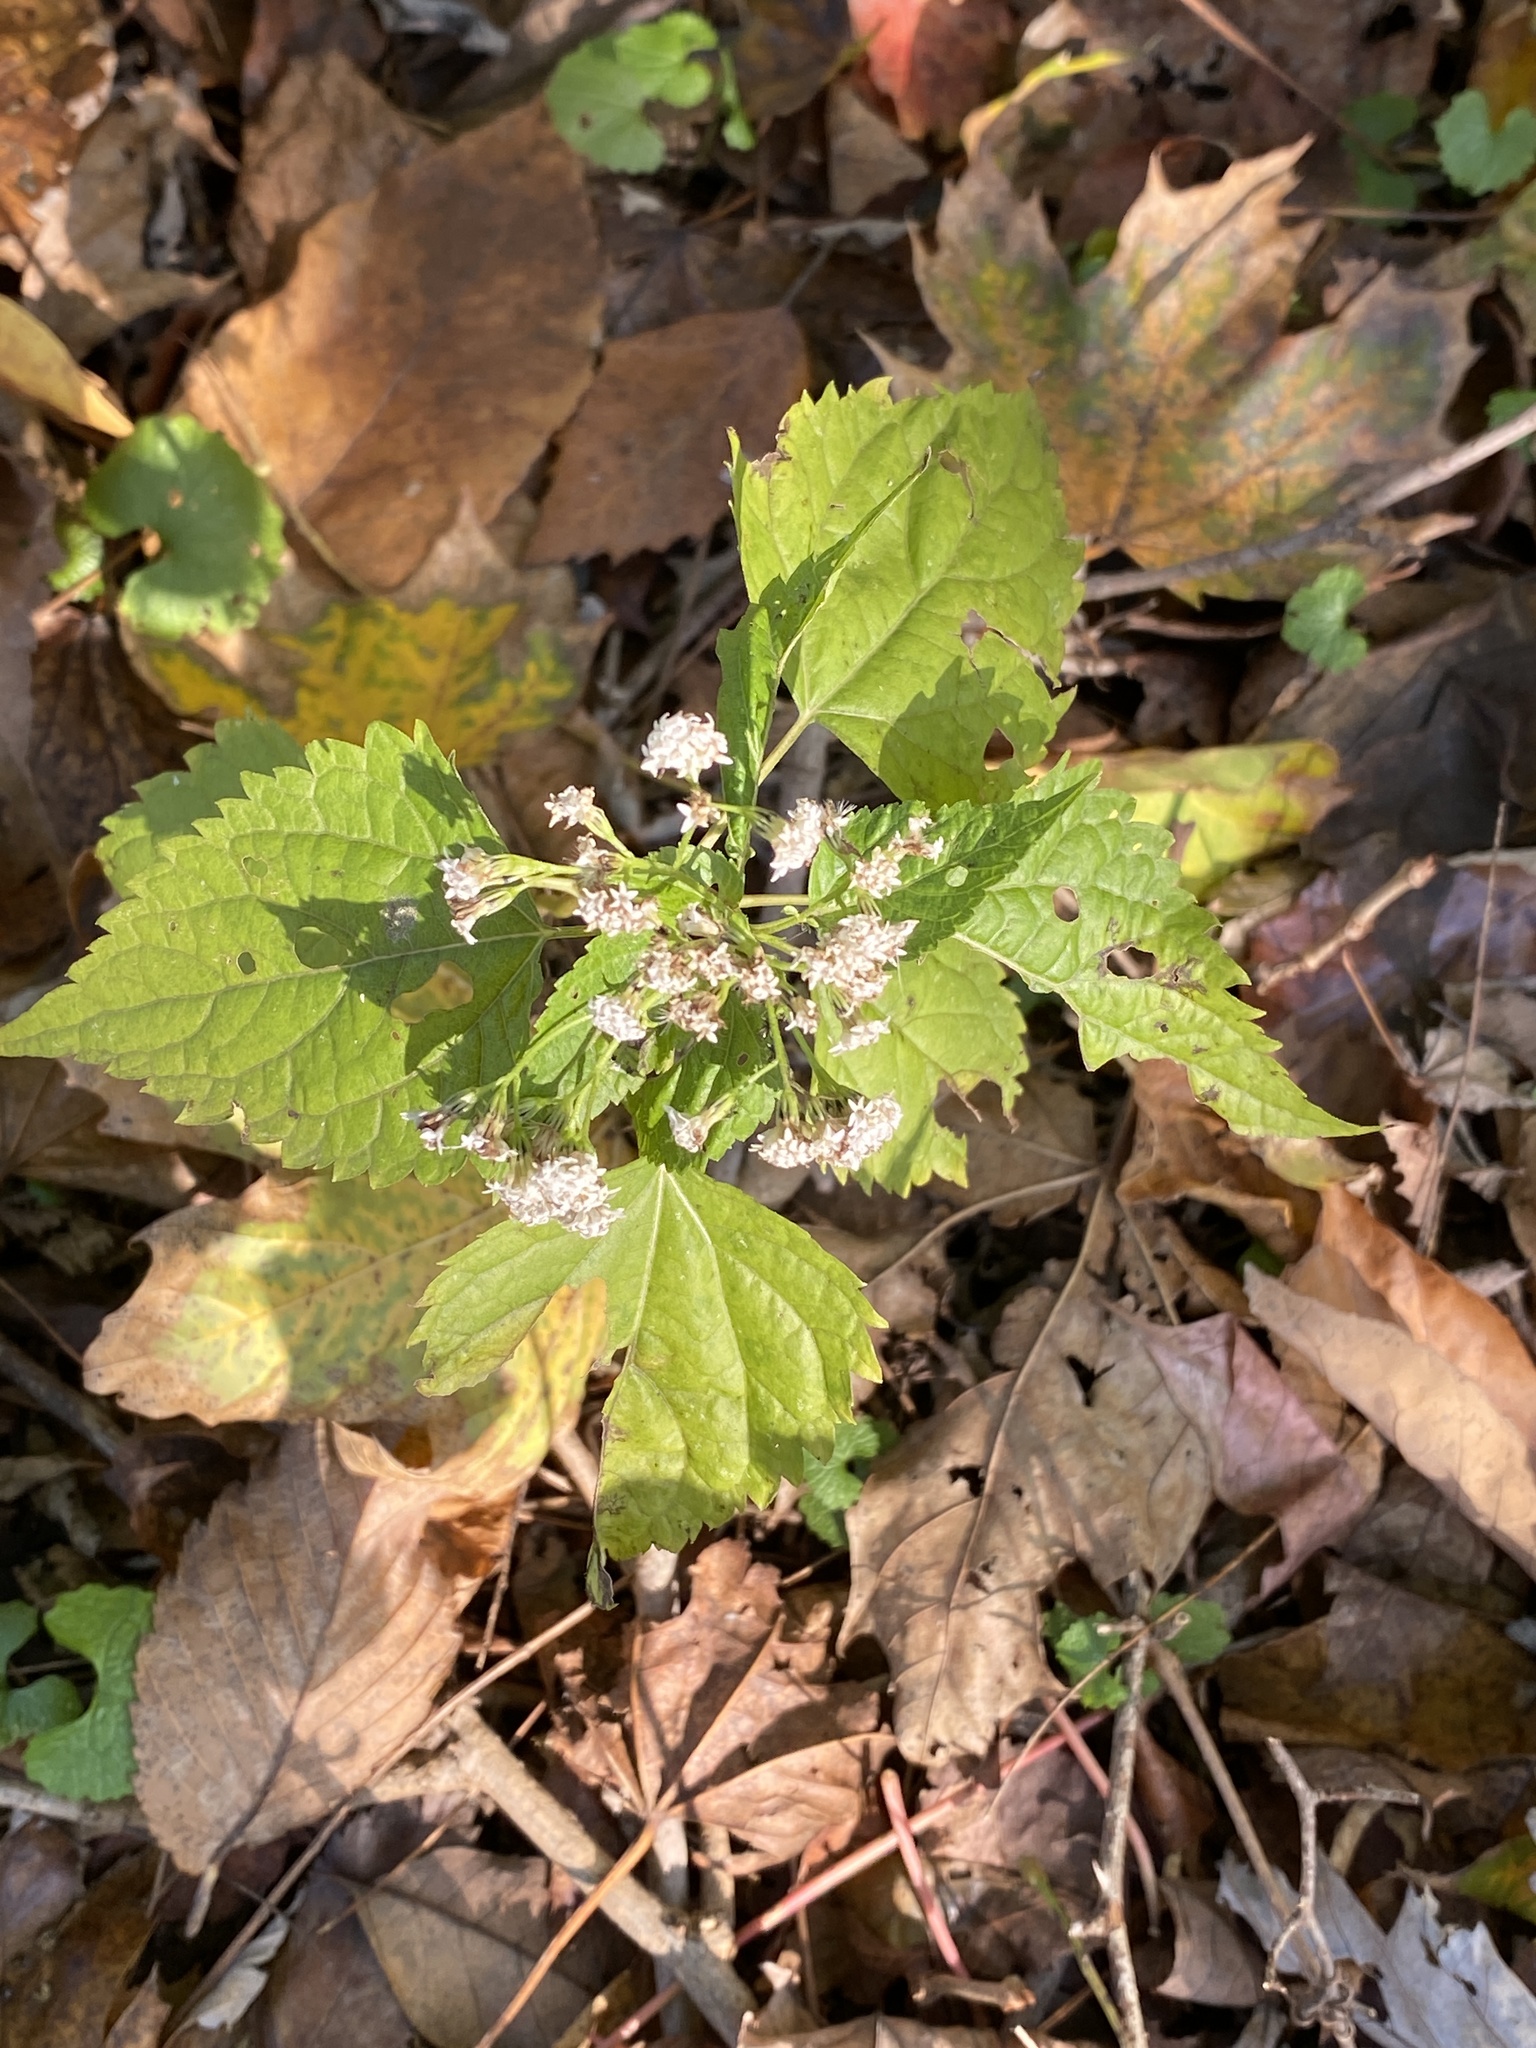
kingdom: Plantae
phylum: Tracheophyta
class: Magnoliopsida
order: Asterales
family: Asteraceae
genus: Ageratina
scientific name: Ageratina altissima
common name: White snakeroot
